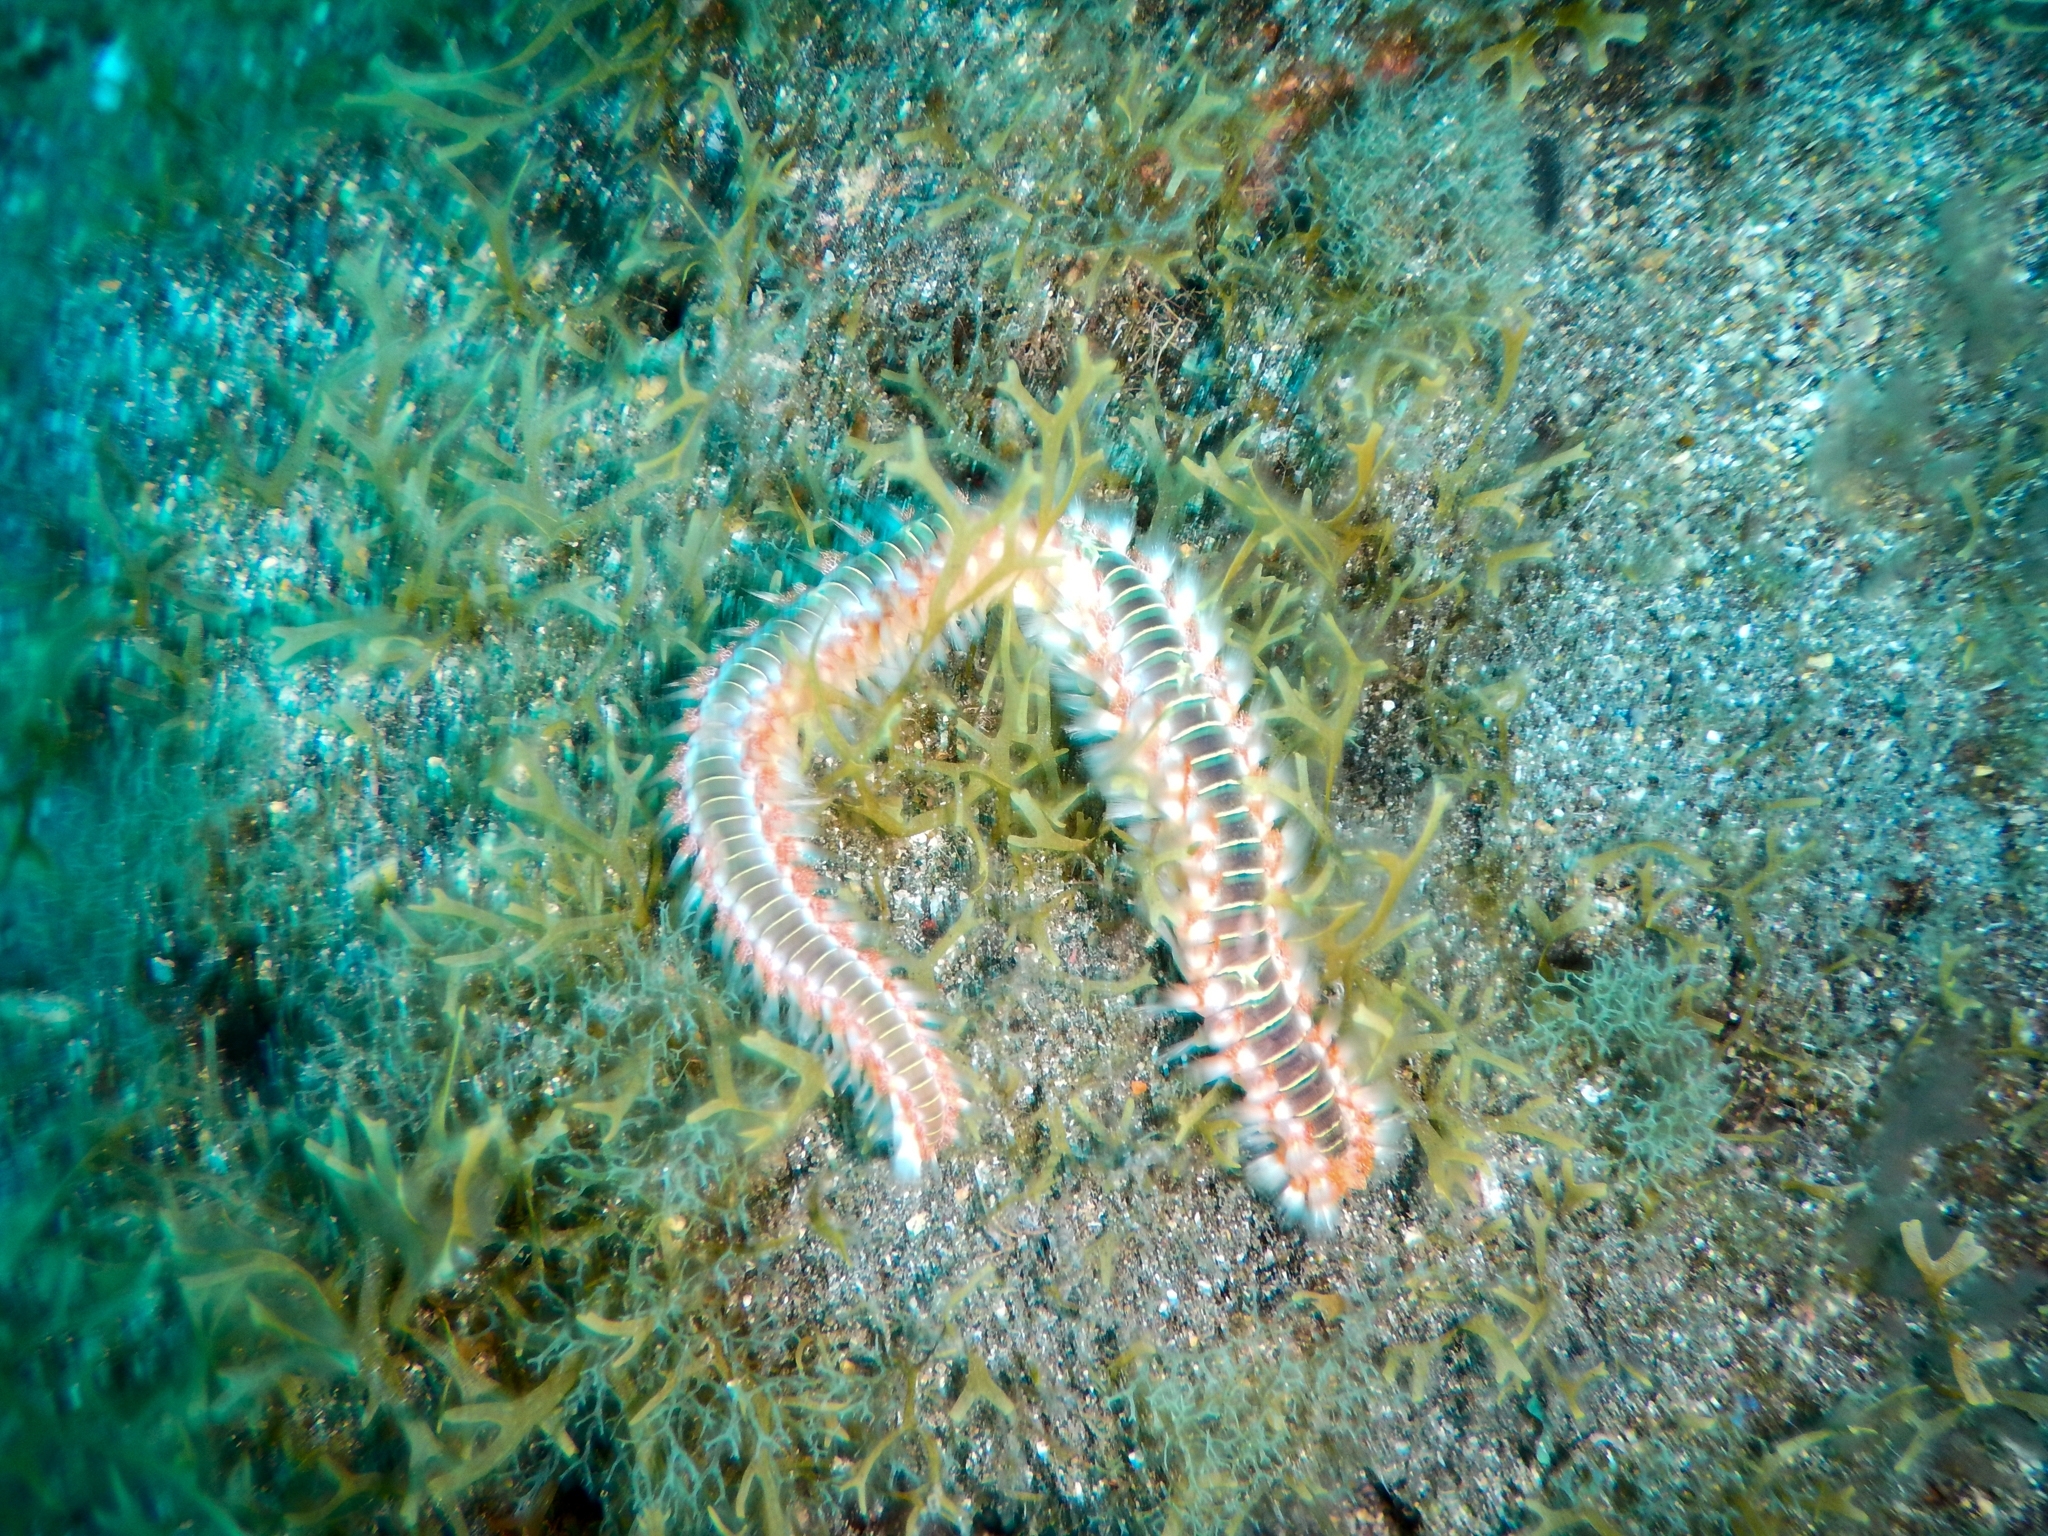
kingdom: Animalia
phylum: Annelida
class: Polychaeta
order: Amphinomida
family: Amphinomidae
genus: Hermodice
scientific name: Hermodice carunculata
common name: Bearded fireworm
